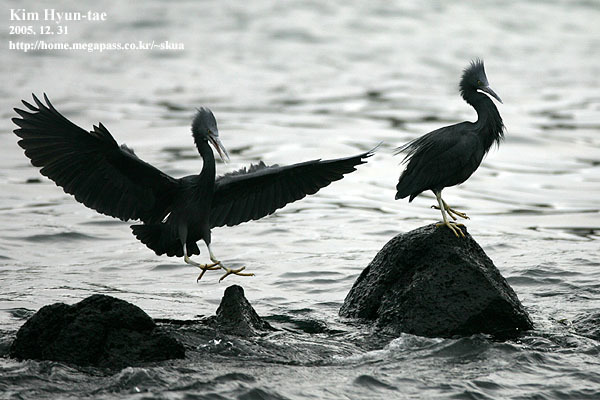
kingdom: Animalia
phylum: Chordata
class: Aves
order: Pelecaniformes
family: Ardeidae
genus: Egretta
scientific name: Egretta sacra
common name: Pacific reef heron
